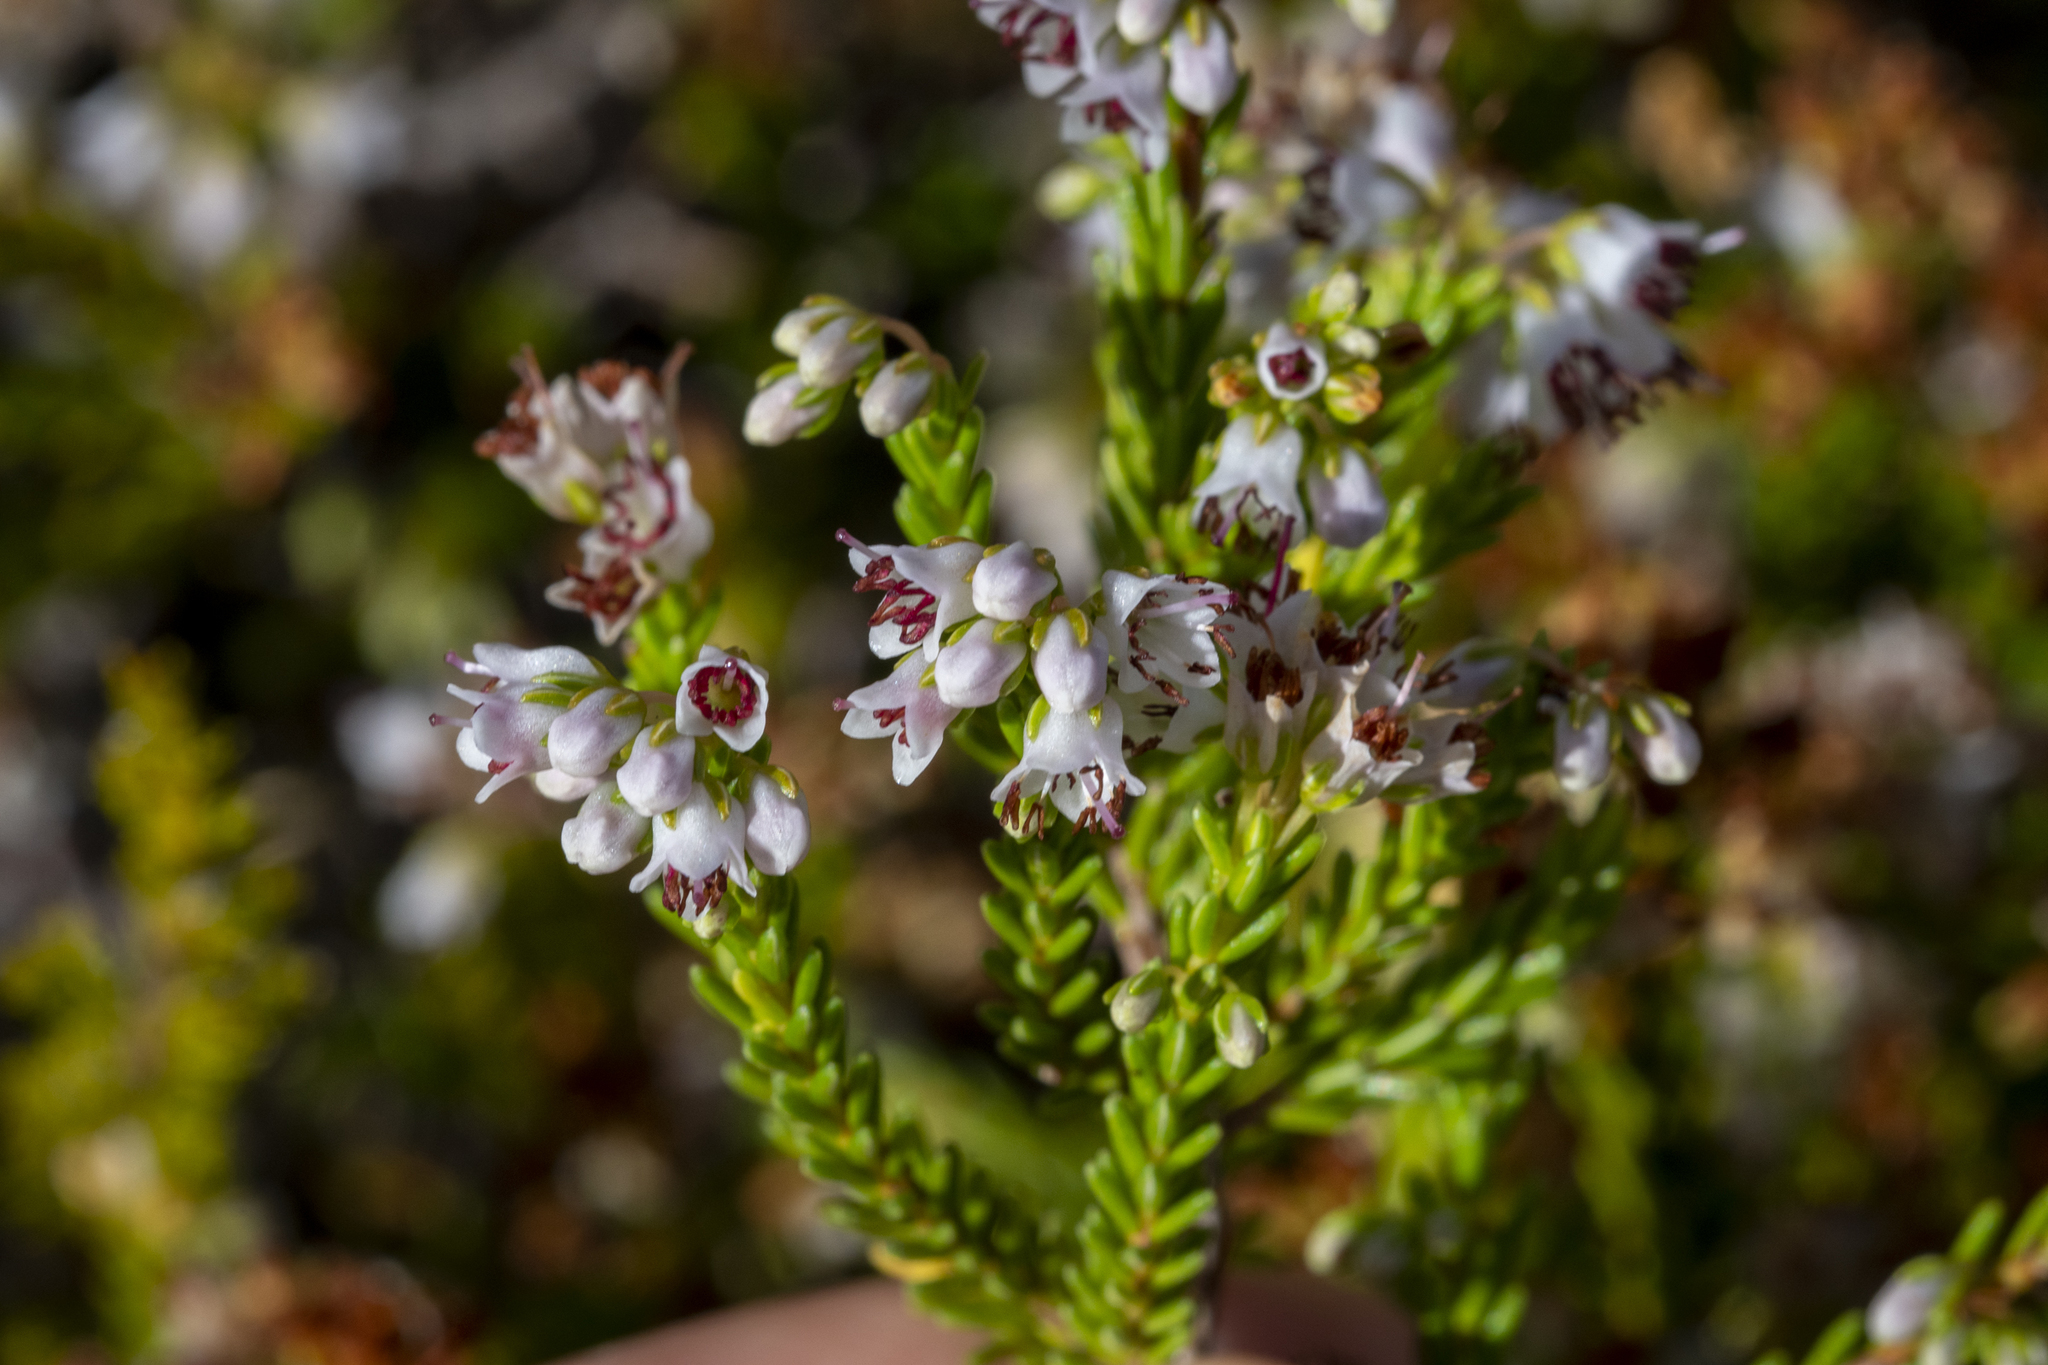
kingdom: Plantae
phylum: Tracheophyta
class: Magnoliopsida
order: Ericales
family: Ericaceae
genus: Erica
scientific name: Erica capillaris
